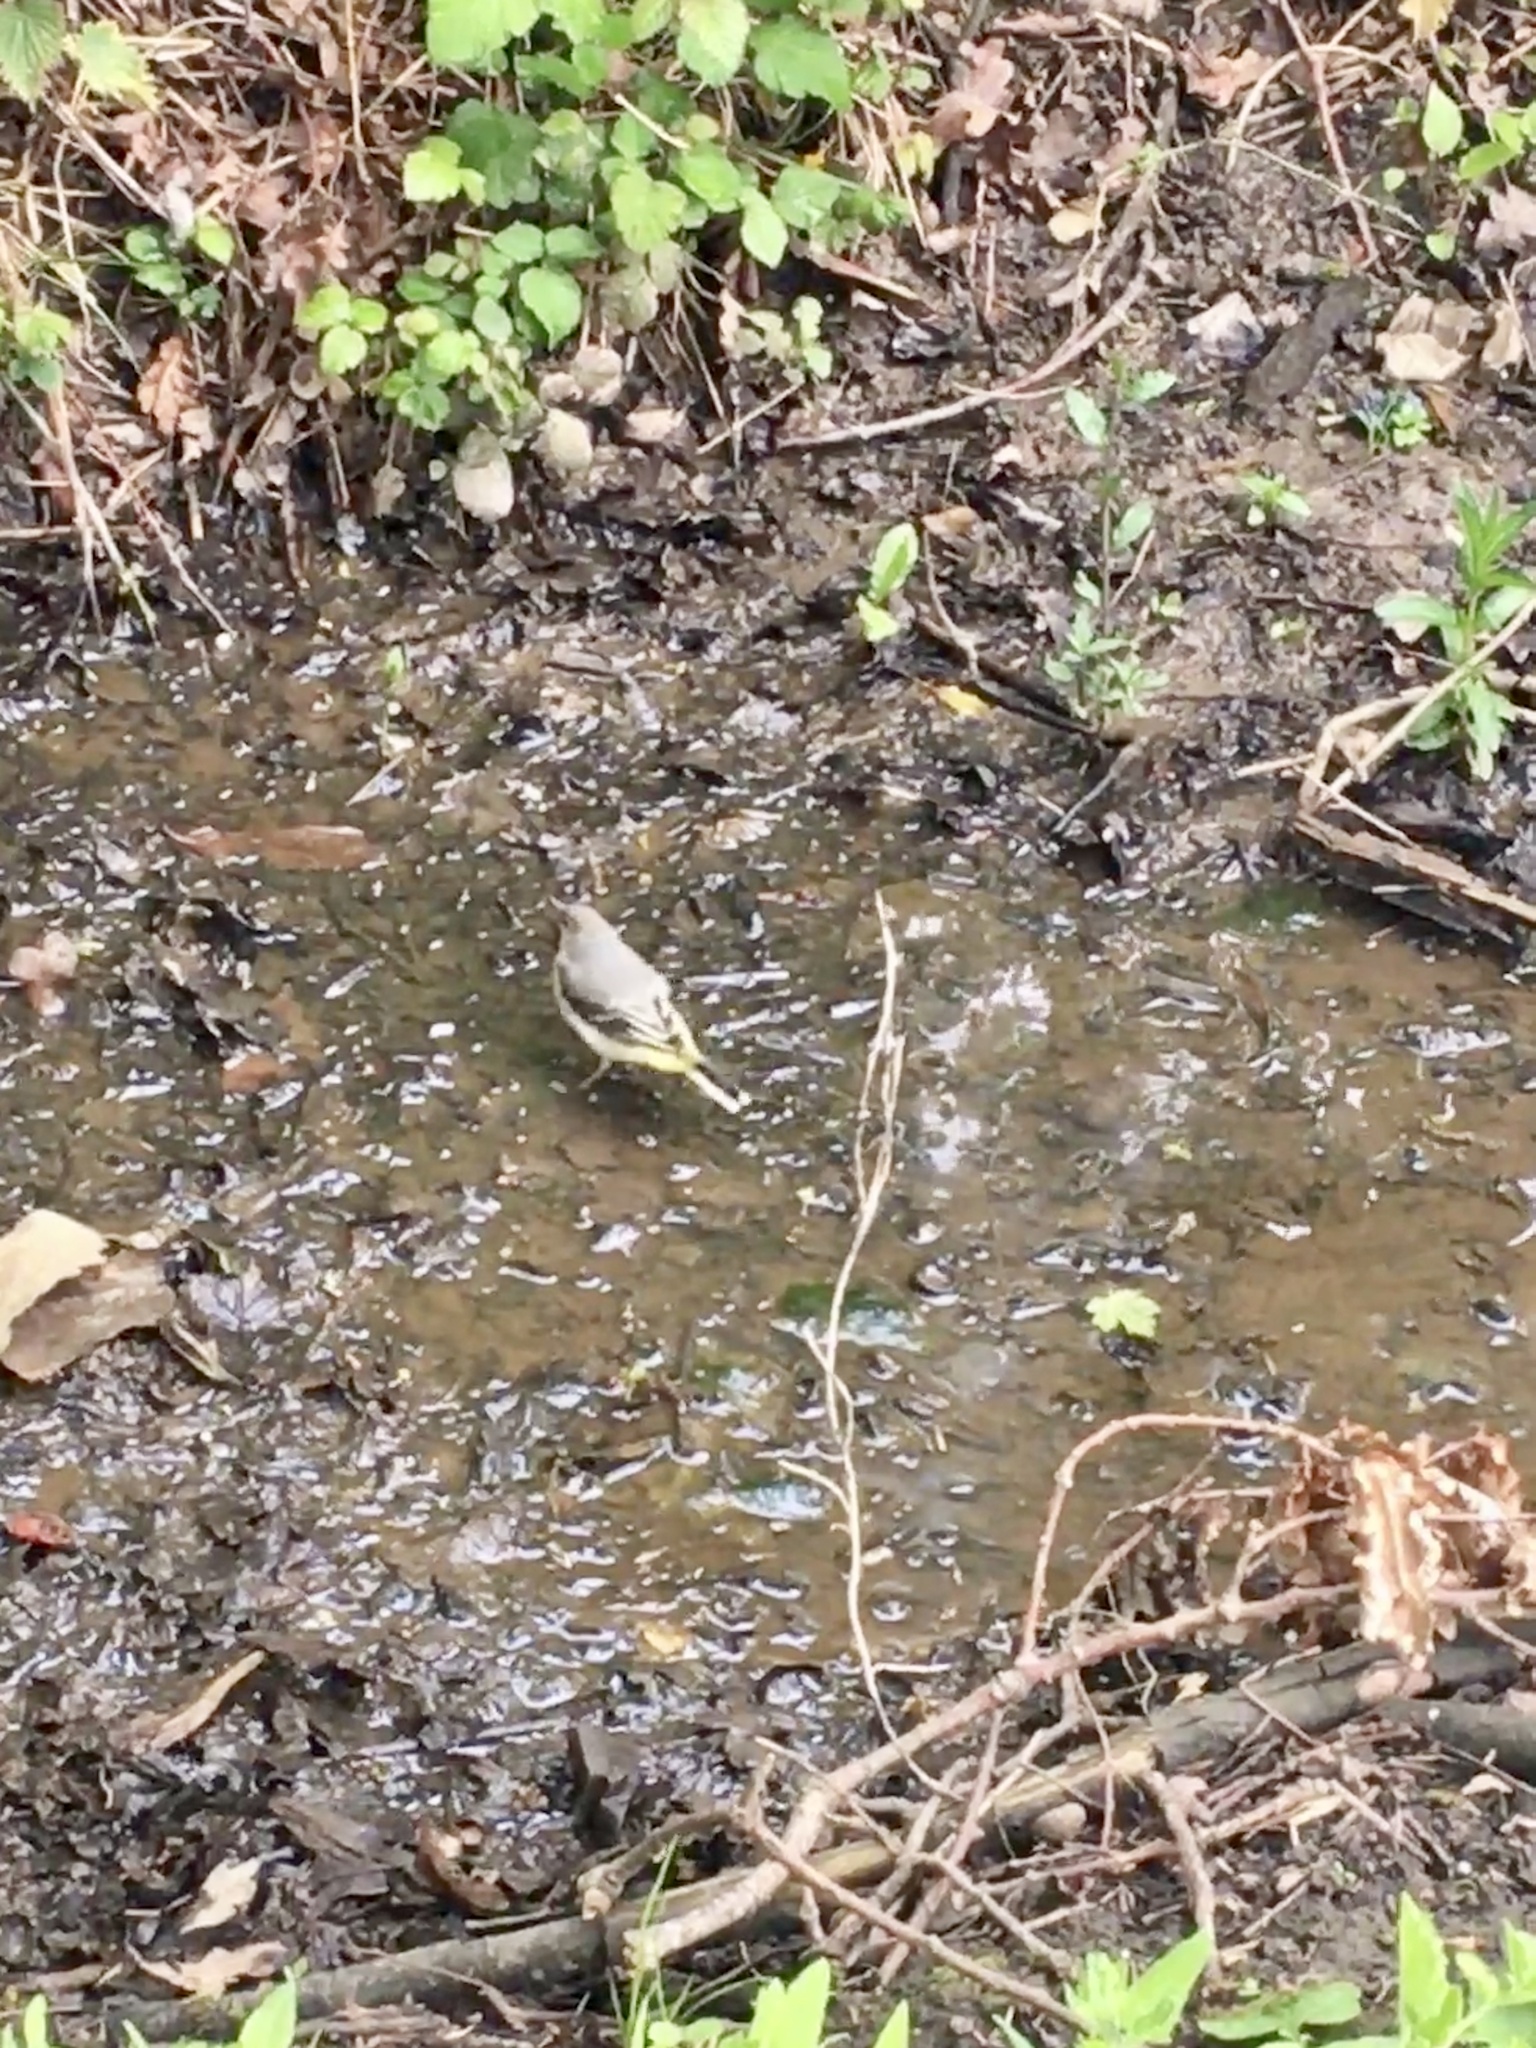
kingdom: Animalia
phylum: Chordata
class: Aves
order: Passeriformes
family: Motacillidae
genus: Motacilla
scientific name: Motacilla cinerea
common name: Grey wagtail
